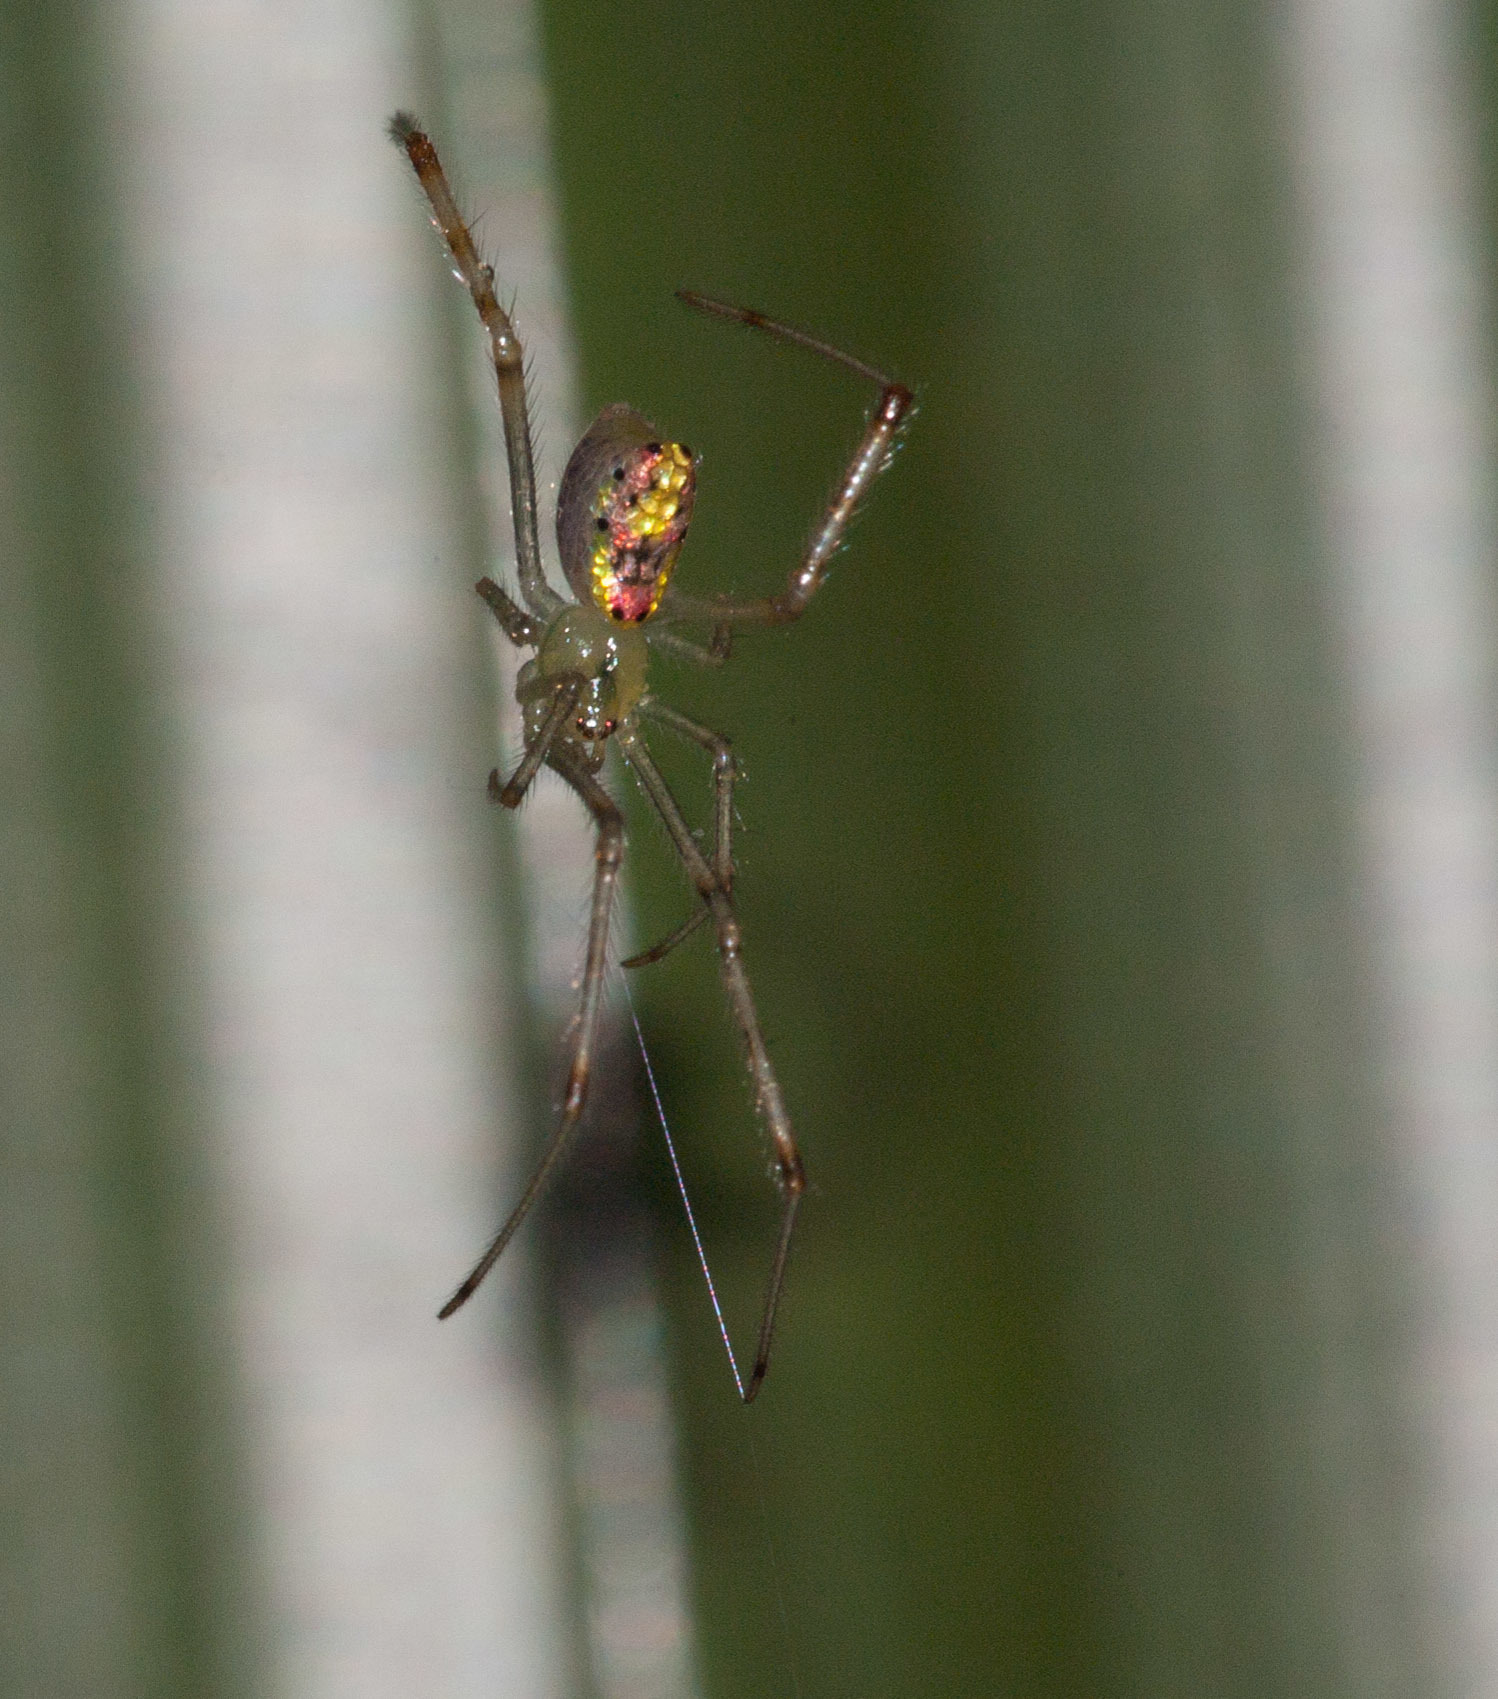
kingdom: Animalia
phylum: Arthropoda
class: Arachnida
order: Araneae
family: Theridiidae
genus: Thwaitesia
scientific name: Thwaitesia nigronodosa
